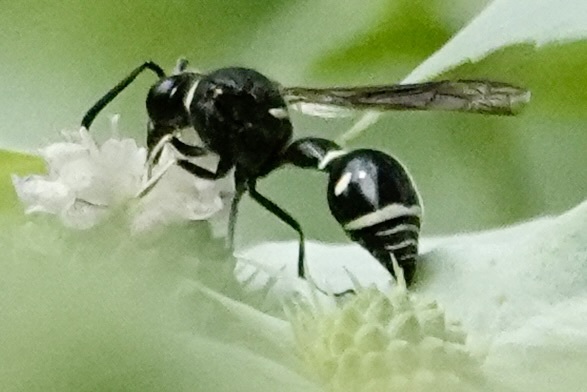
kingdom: Animalia
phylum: Arthropoda
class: Insecta
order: Hymenoptera
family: Vespidae
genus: Eumenes
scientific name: Eumenes fraternus
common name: Fraternal potter wasp
